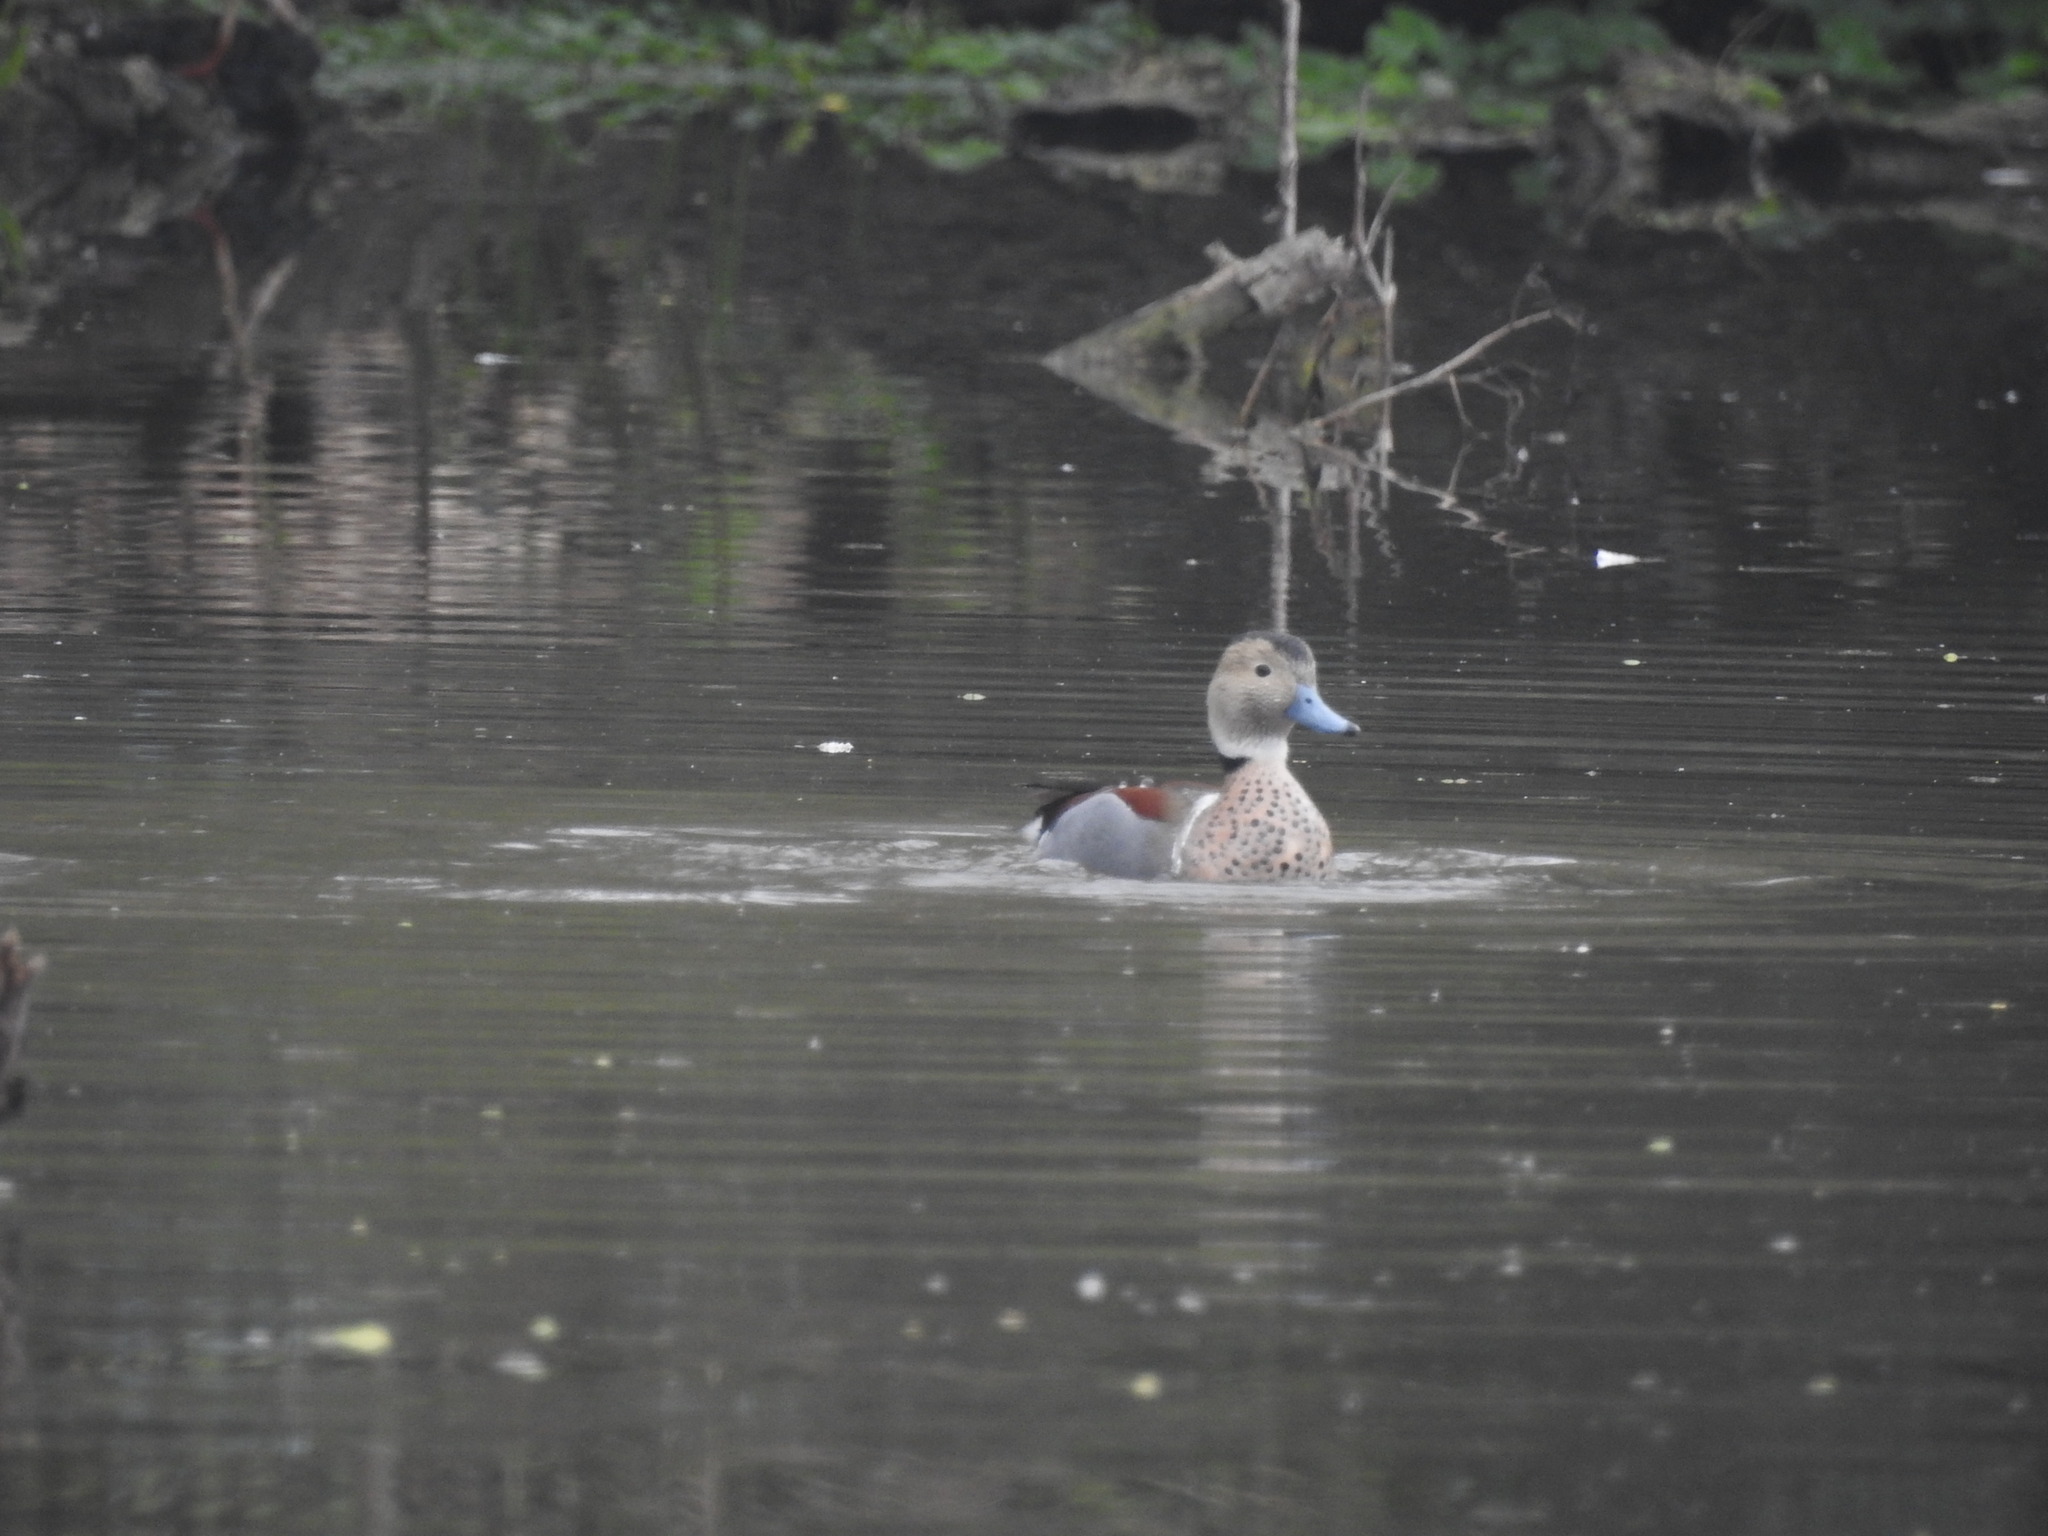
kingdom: Animalia
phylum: Chordata
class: Aves
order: Anseriformes
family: Anatidae
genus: Callonetta
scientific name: Callonetta leucophrys
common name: Ringed teal
